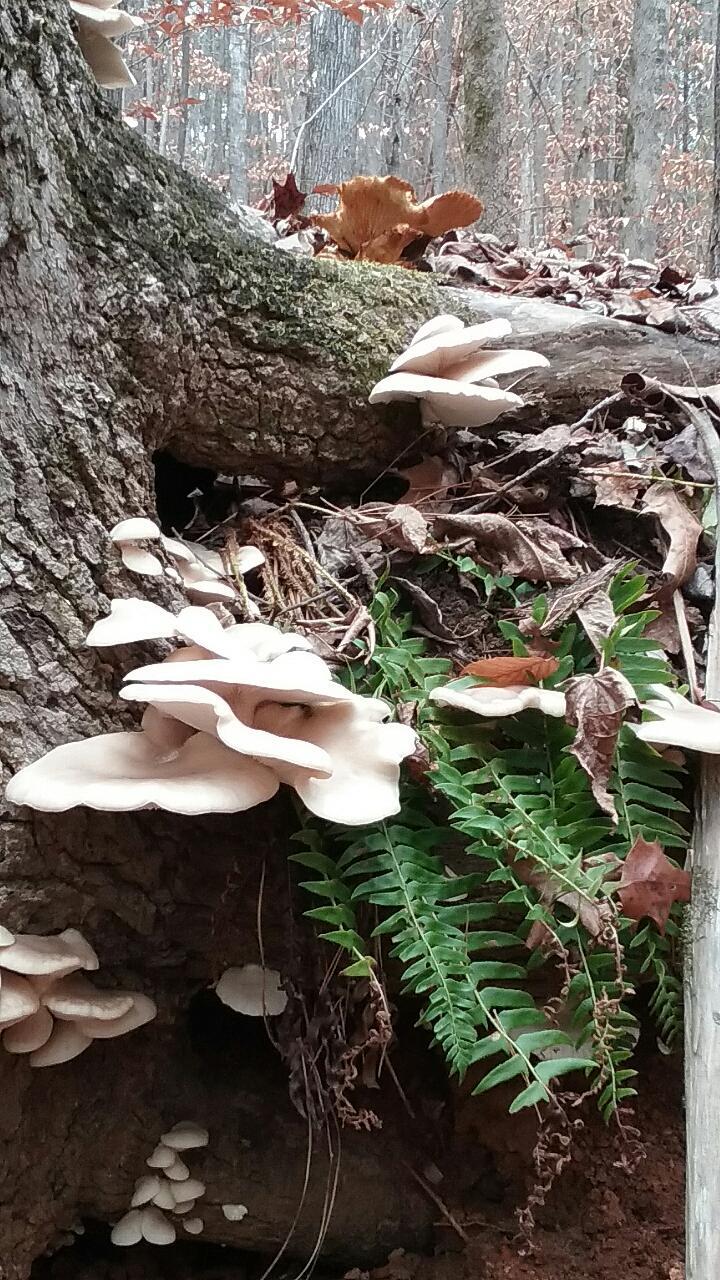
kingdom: Fungi
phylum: Basidiomycota
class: Agaricomycetes
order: Agaricales
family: Pleurotaceae
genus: Pleurotus
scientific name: Pleurotus ostreatus
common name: Oyster mushroom
